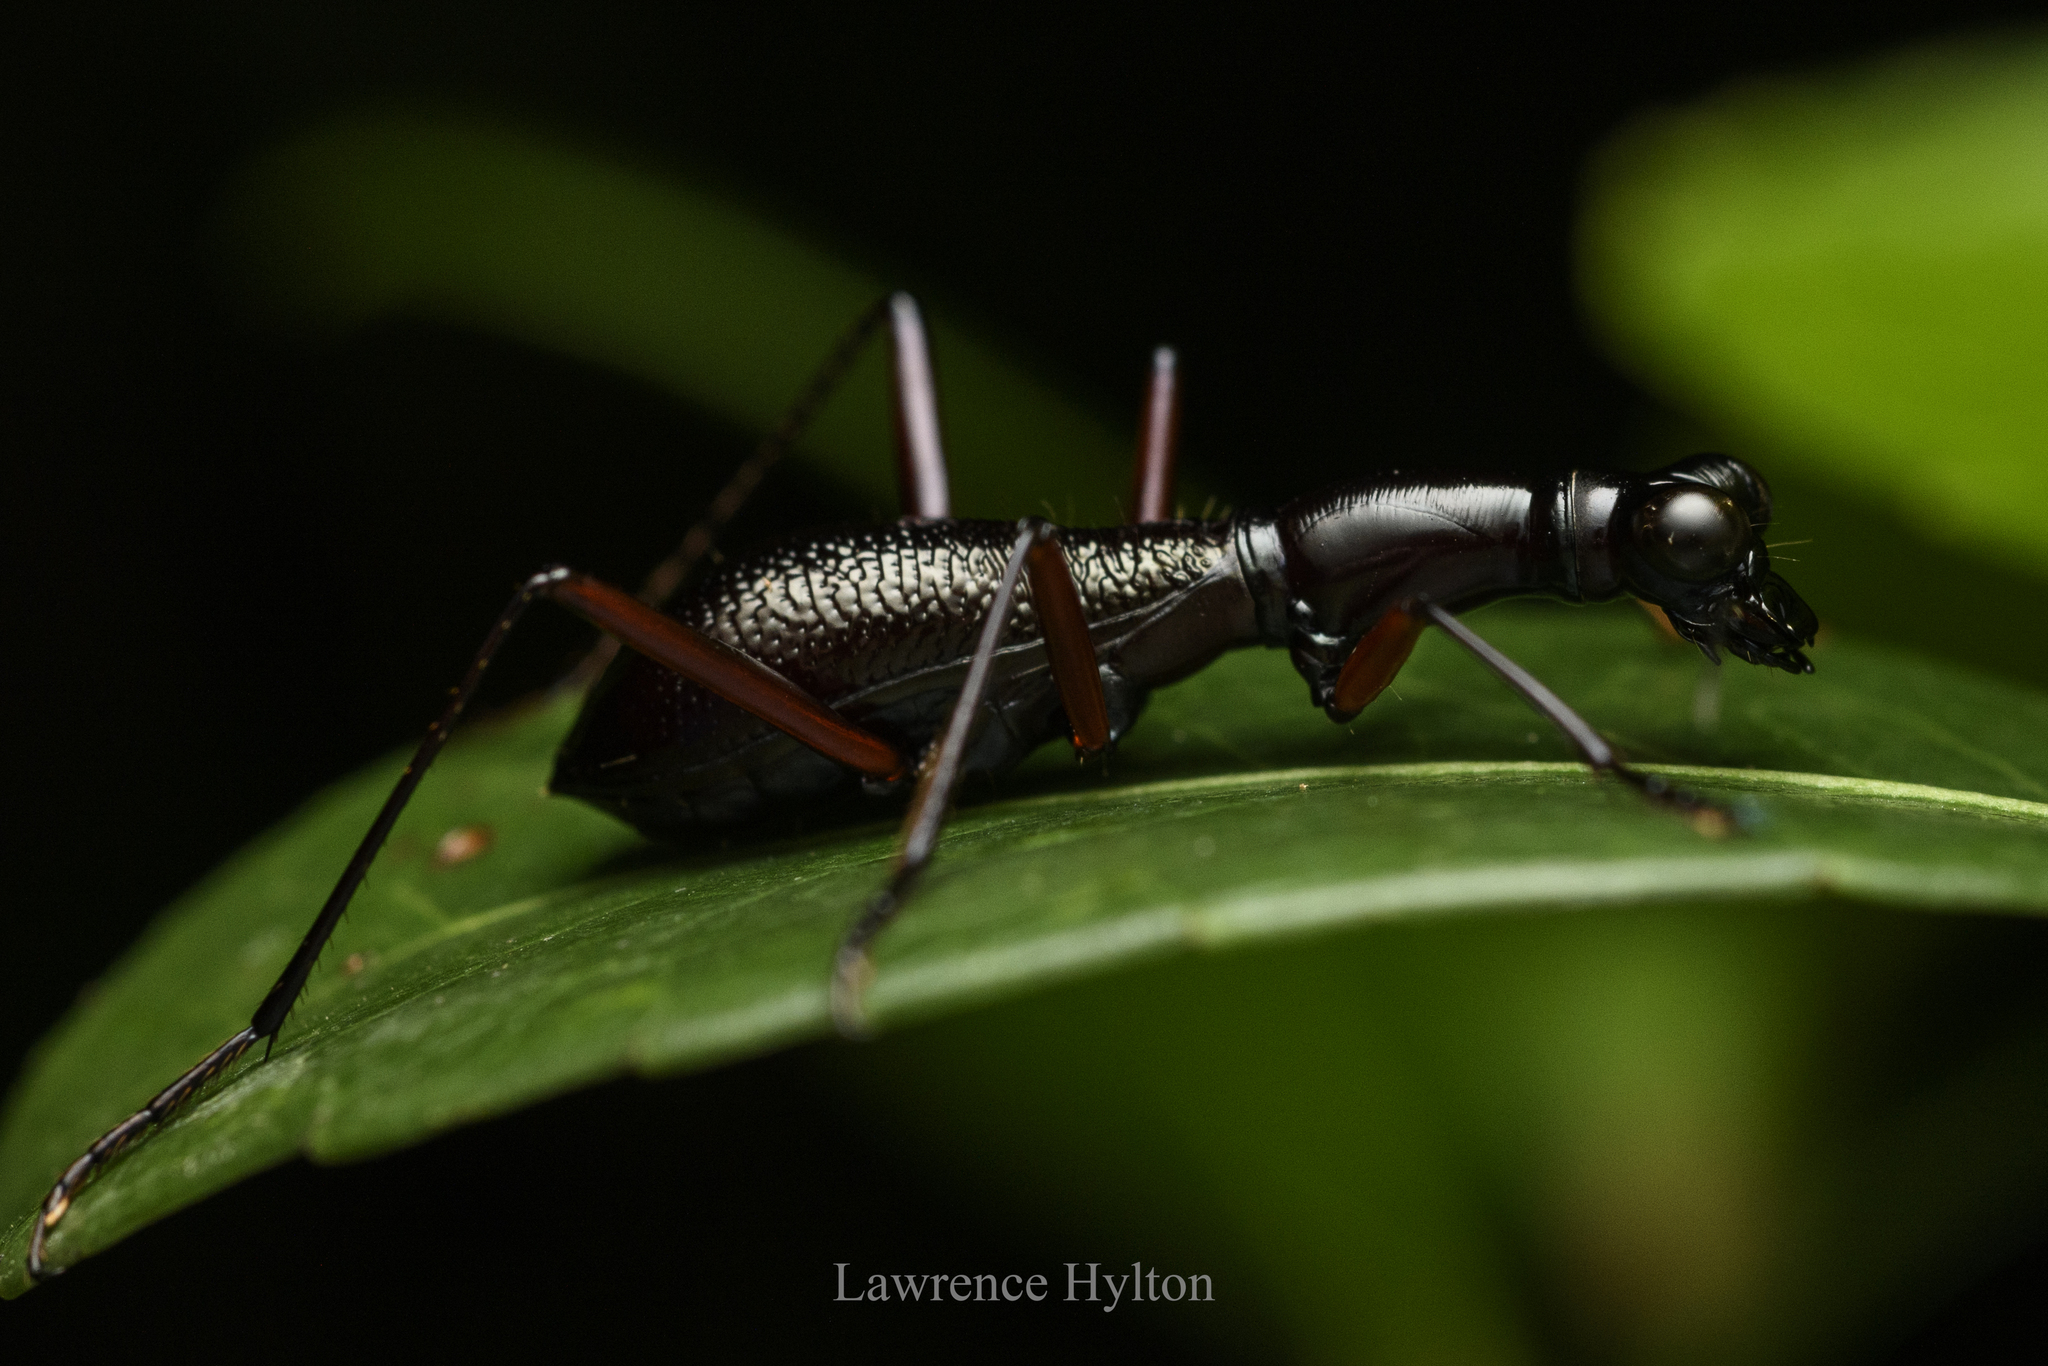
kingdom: Animalia
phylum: Arthropoda
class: Insecta
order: Coleoptera
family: Carabidae
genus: Tricondyla
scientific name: Tricondyla pulchripes
